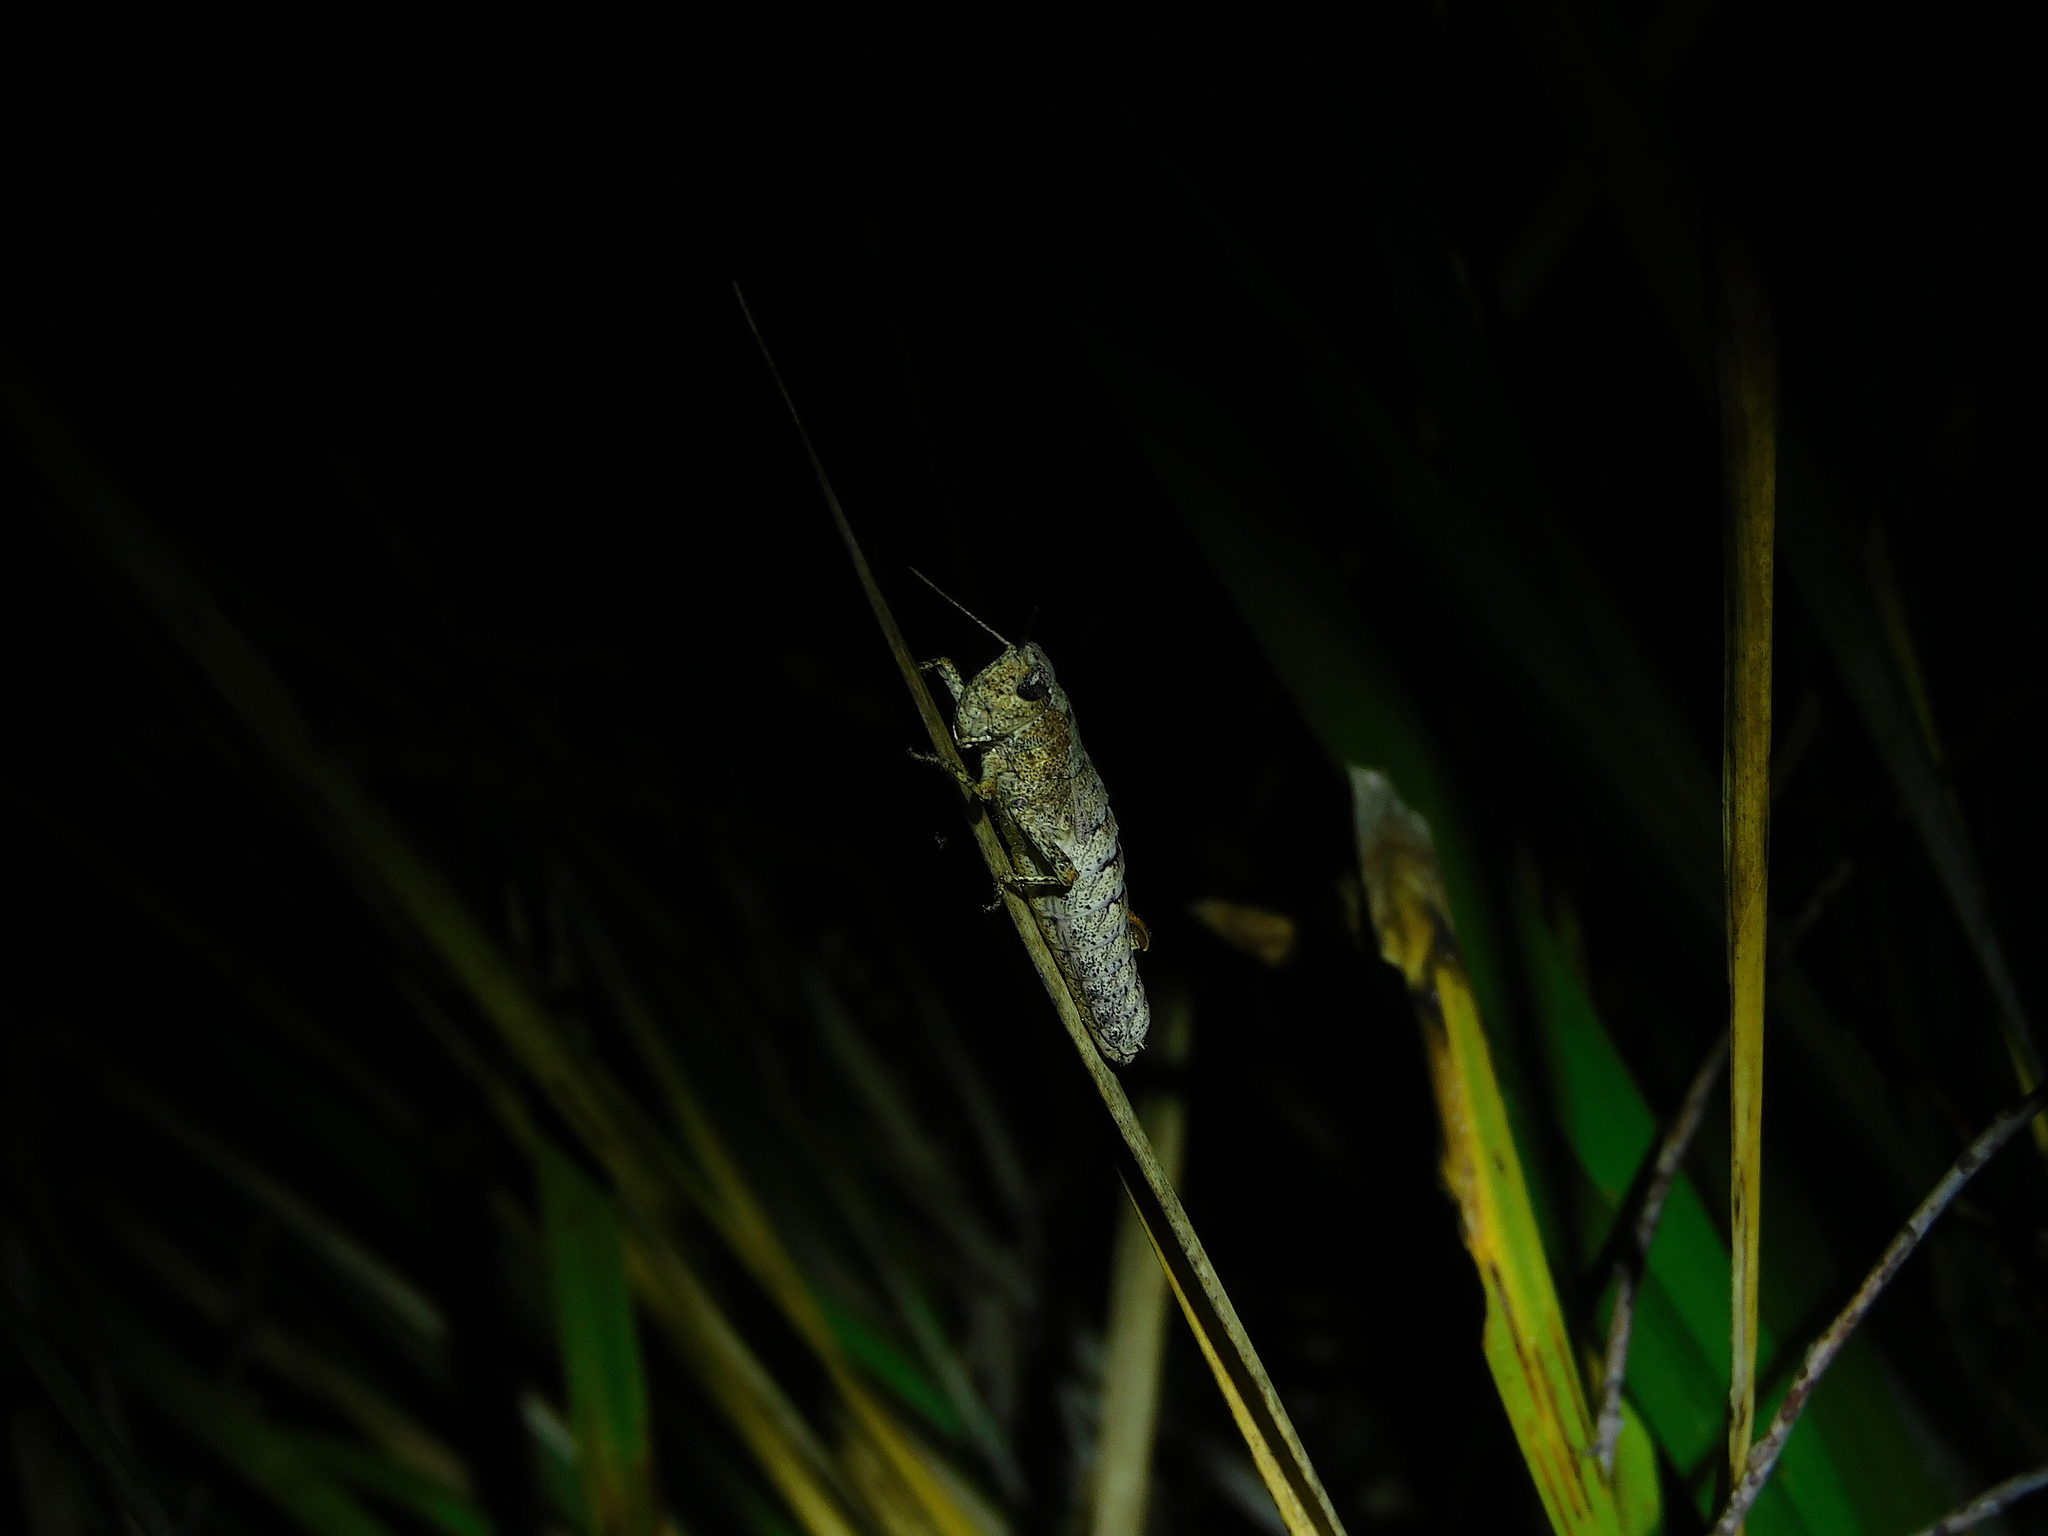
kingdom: Animalia
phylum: Arthropoda
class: Insecta
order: Orthoptera
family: Acrididae
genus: Tasmaniacris
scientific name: Tasmaniacris tasmaniensis
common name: Tasmanian grasshopper
